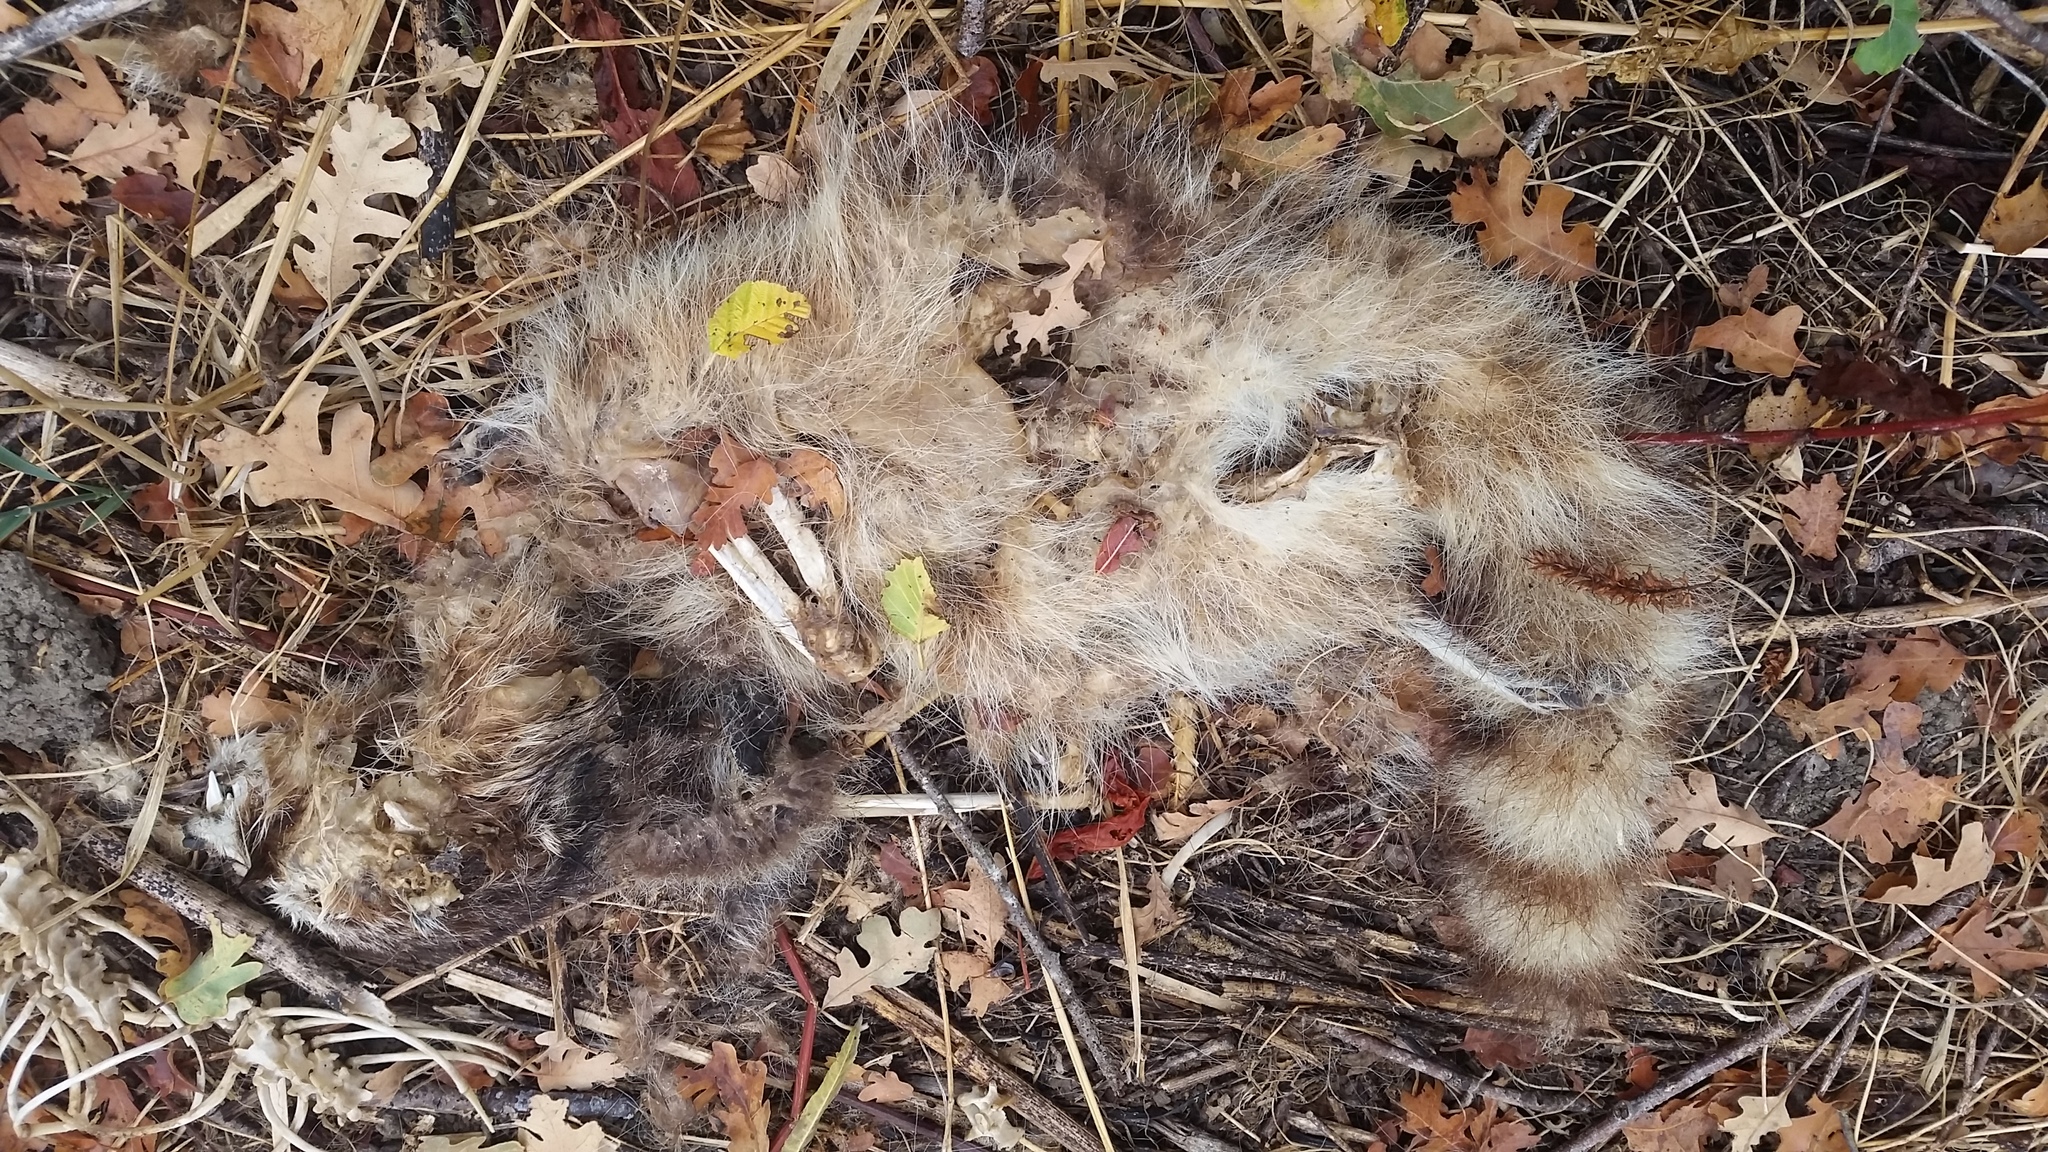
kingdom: Animalia
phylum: Chordata
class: Mammalia
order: Carnivora
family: Procyonidae
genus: Procyon
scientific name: Procyon lotor
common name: Raccoon
